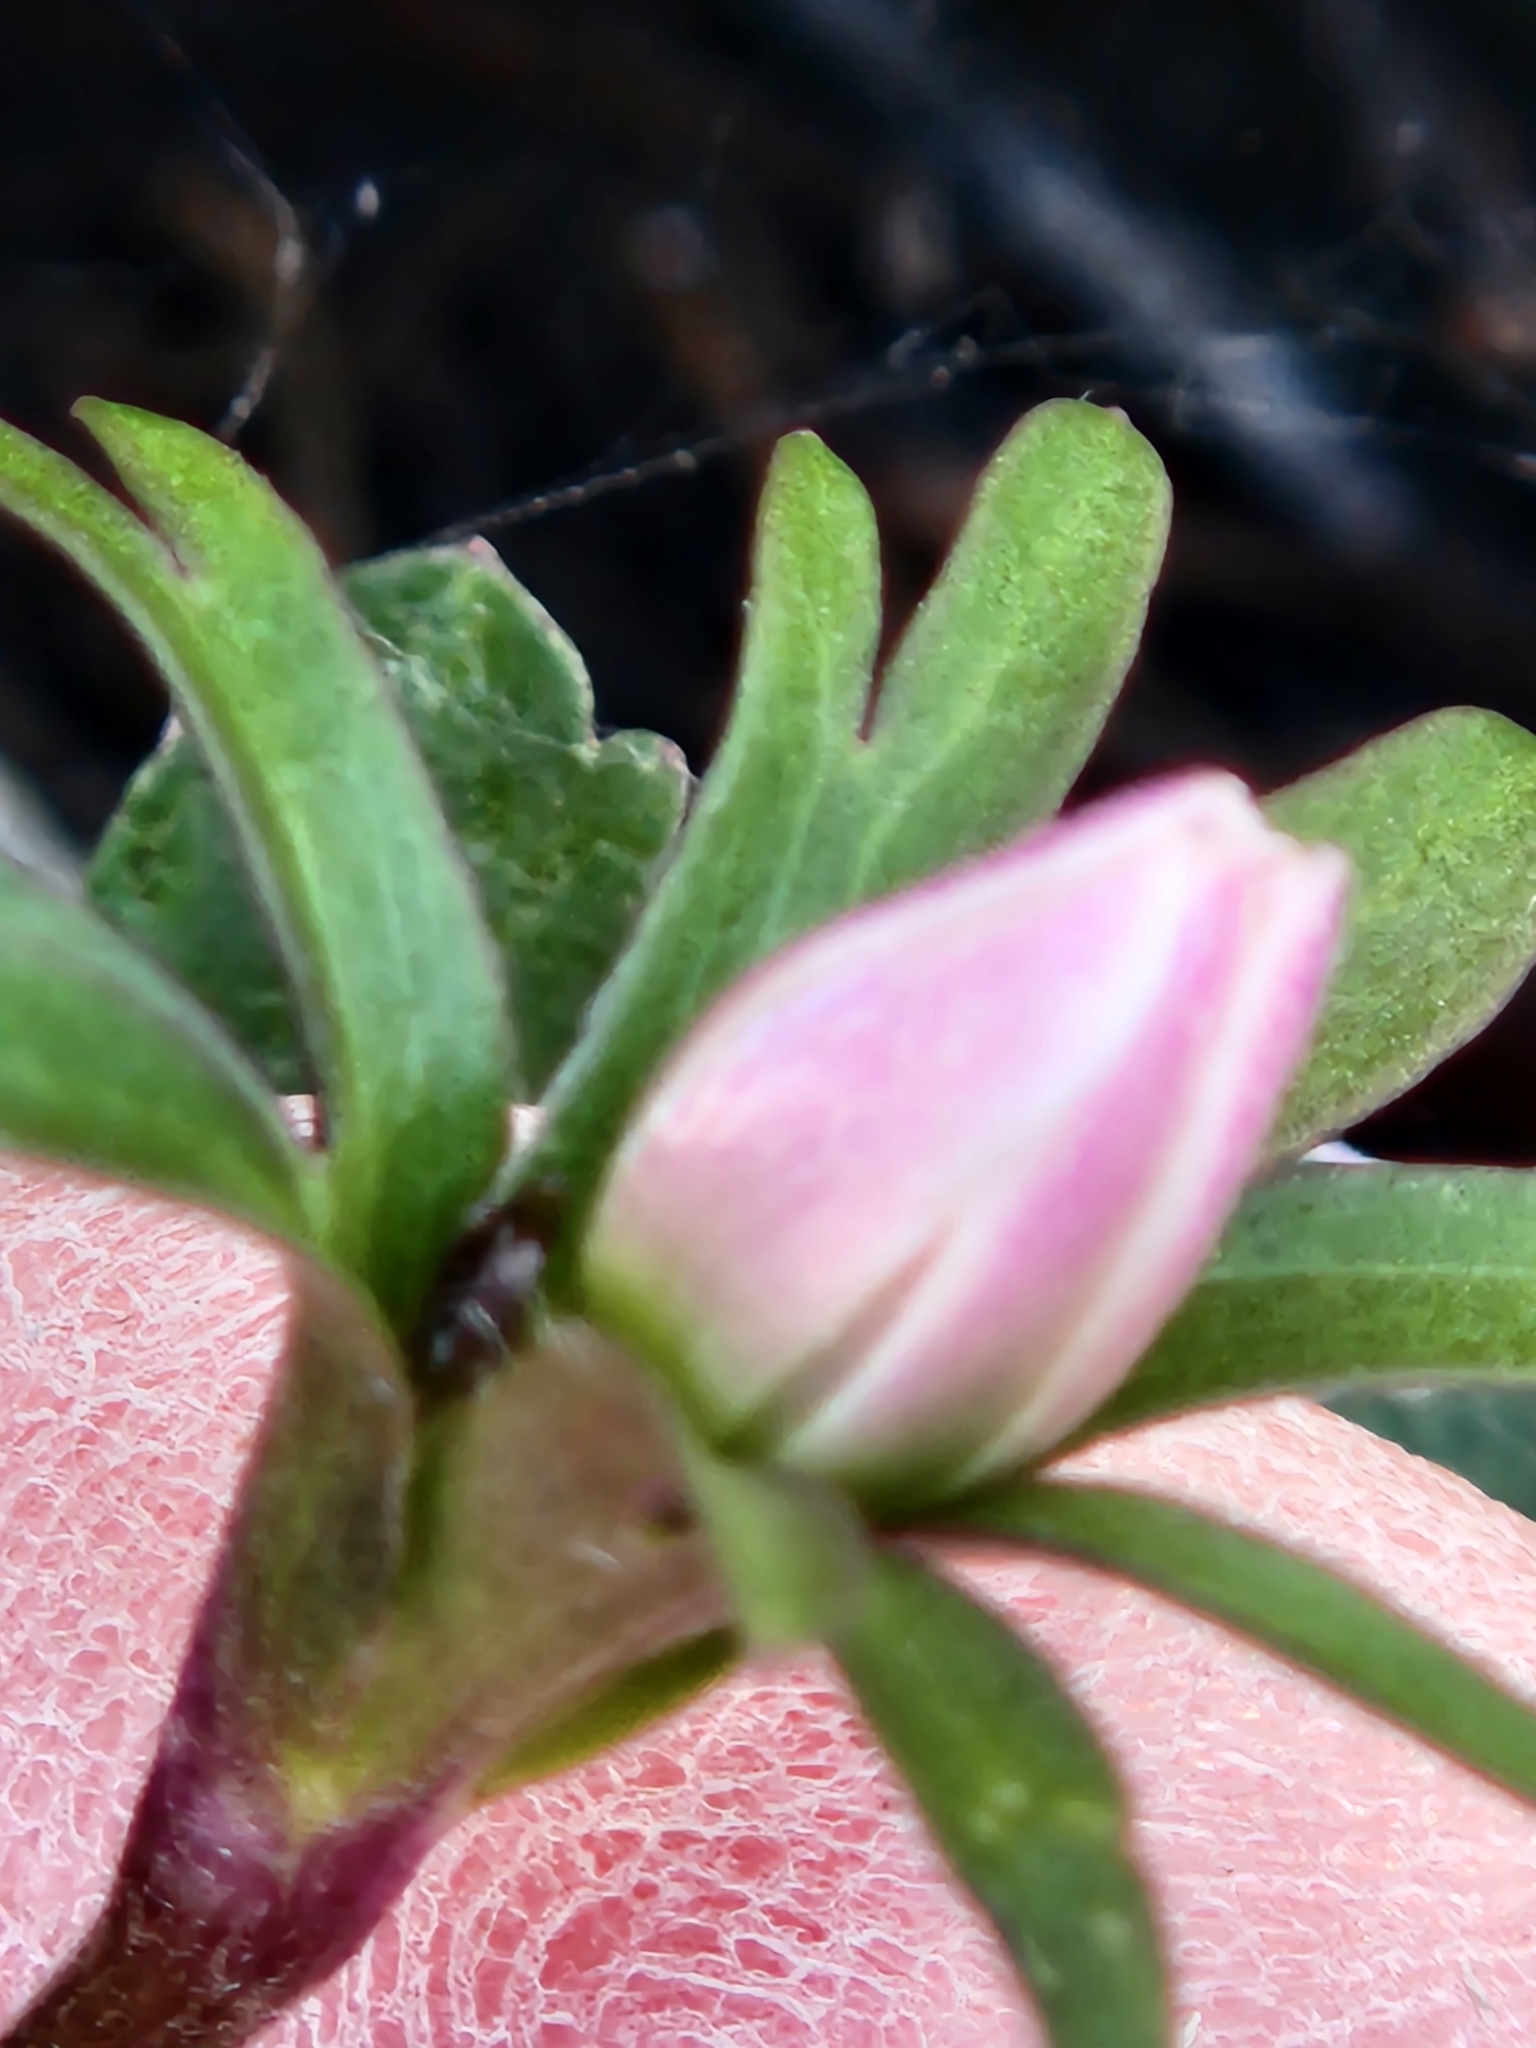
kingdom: Plantae
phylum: Tracheophyta
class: Magnoliopsida
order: Ranunculales
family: Ranunculaceae
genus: Anemone
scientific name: Anemone edwardsiana
